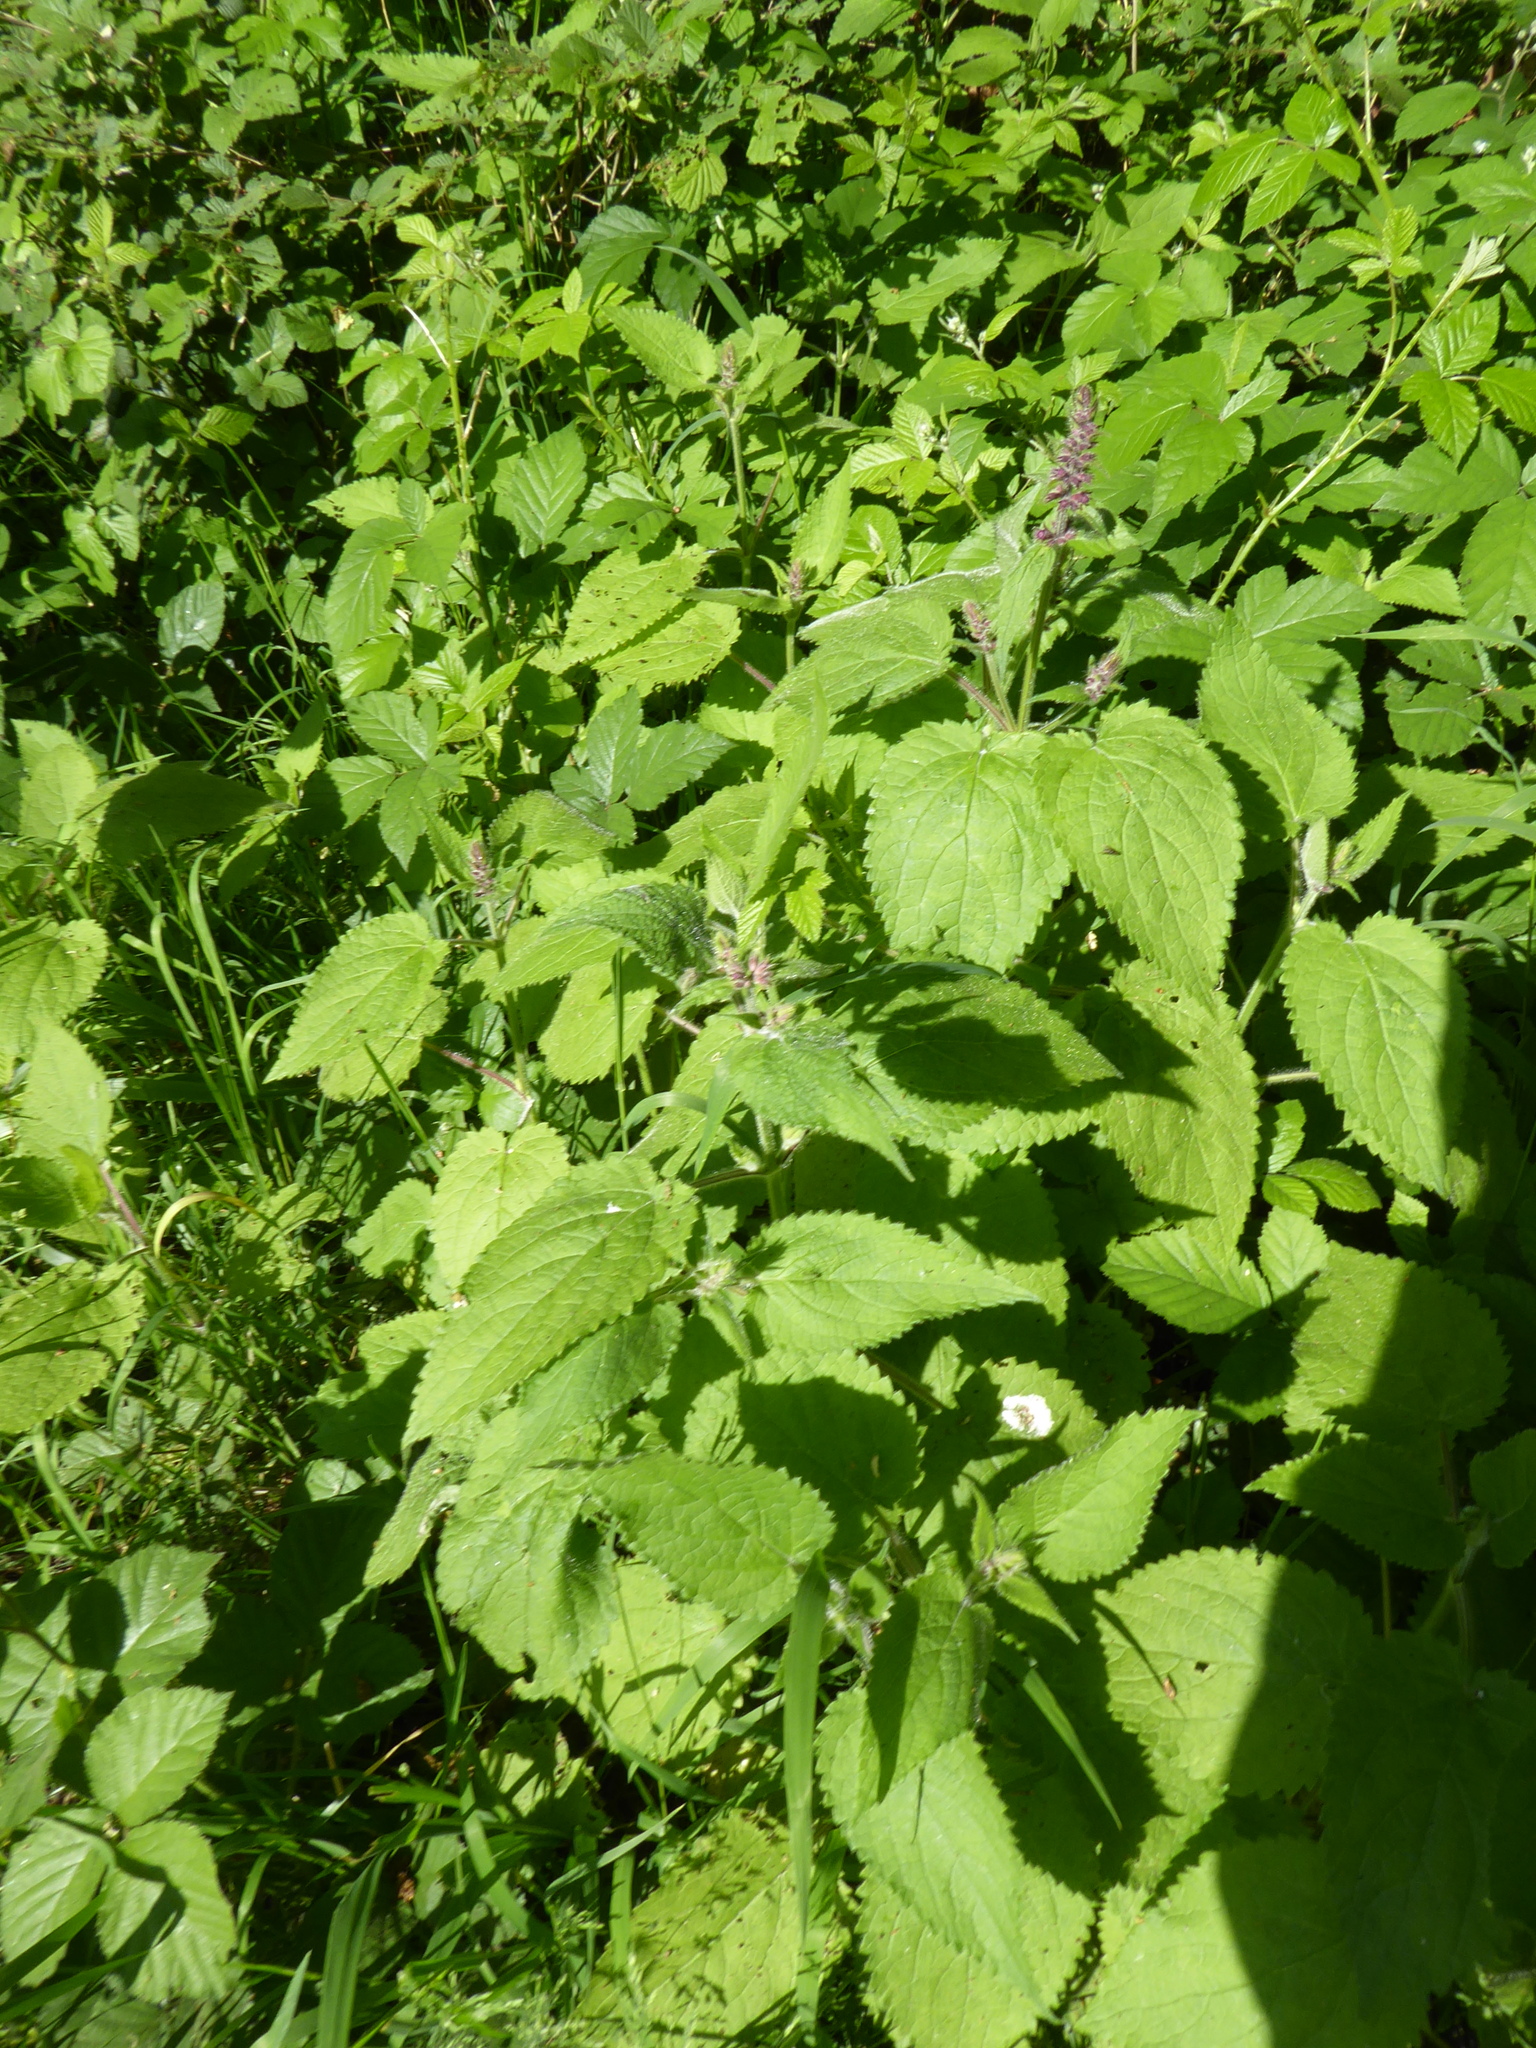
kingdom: Plantae
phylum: Tracheophyta
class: Magnoliopsida
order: Lamiales
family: Lamiaceae
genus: Stachys
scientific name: Stachys sylvatica
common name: Hedge woundwort
